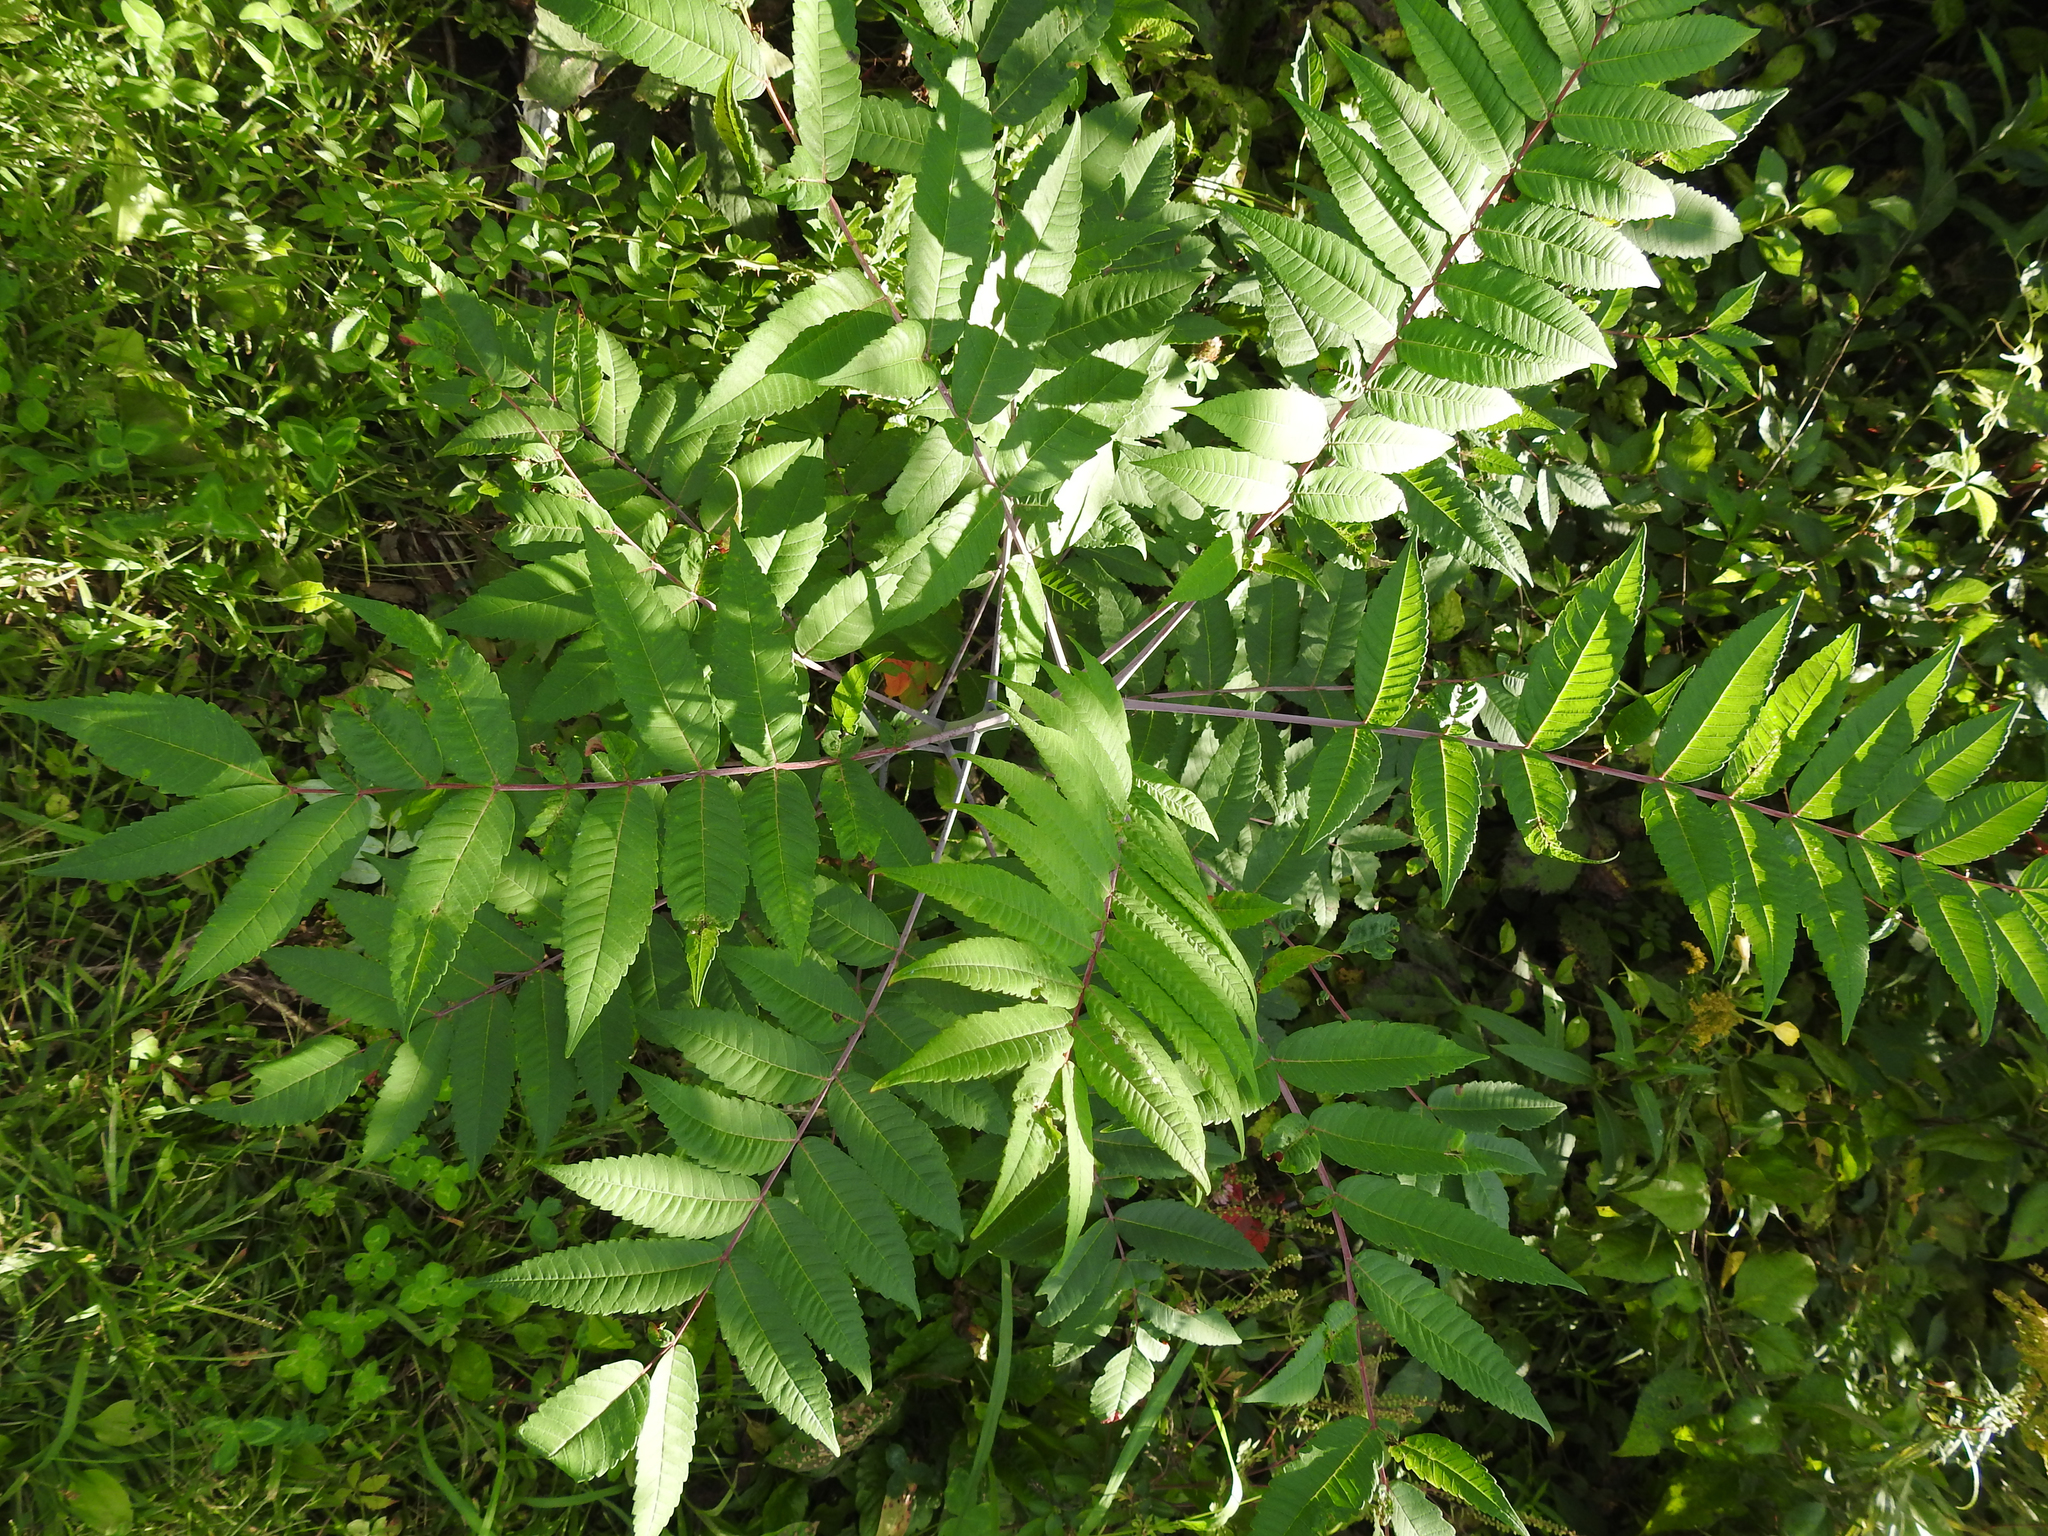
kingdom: Plantae
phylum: Tracheophyta
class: Magnoliopsida
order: Sapindales
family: Anacardiaceae
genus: Rhus
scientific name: Rhus glabra
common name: Scarlet sumac
